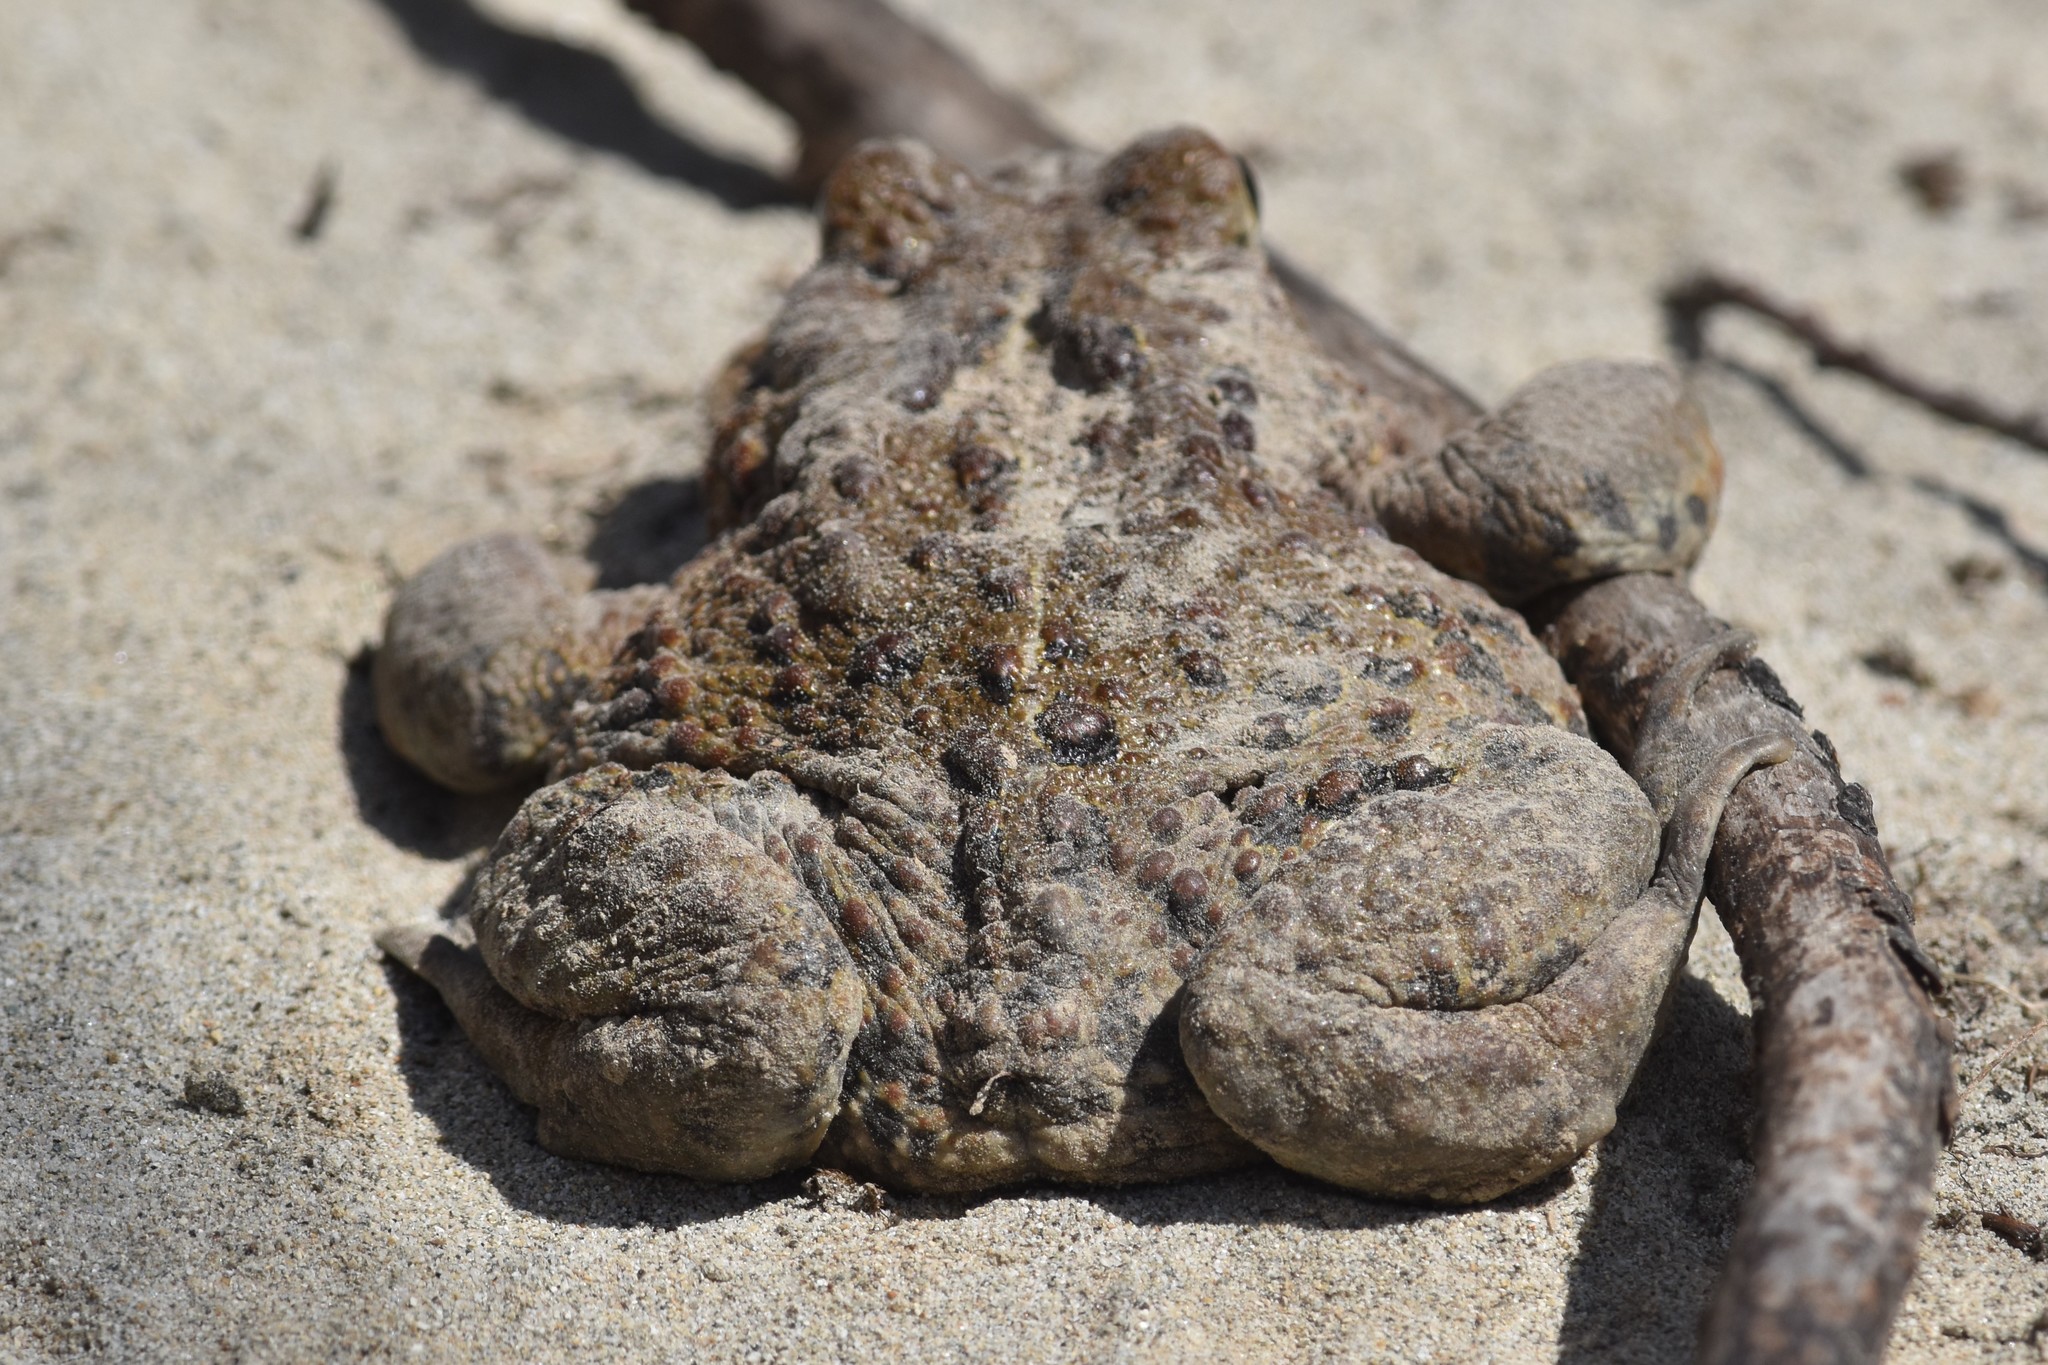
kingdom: Animalia
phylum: Chordata
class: Amphibia
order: Anura
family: Bufonidae
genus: Anaxyrus
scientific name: Anaxyrus boreas
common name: Western toad
